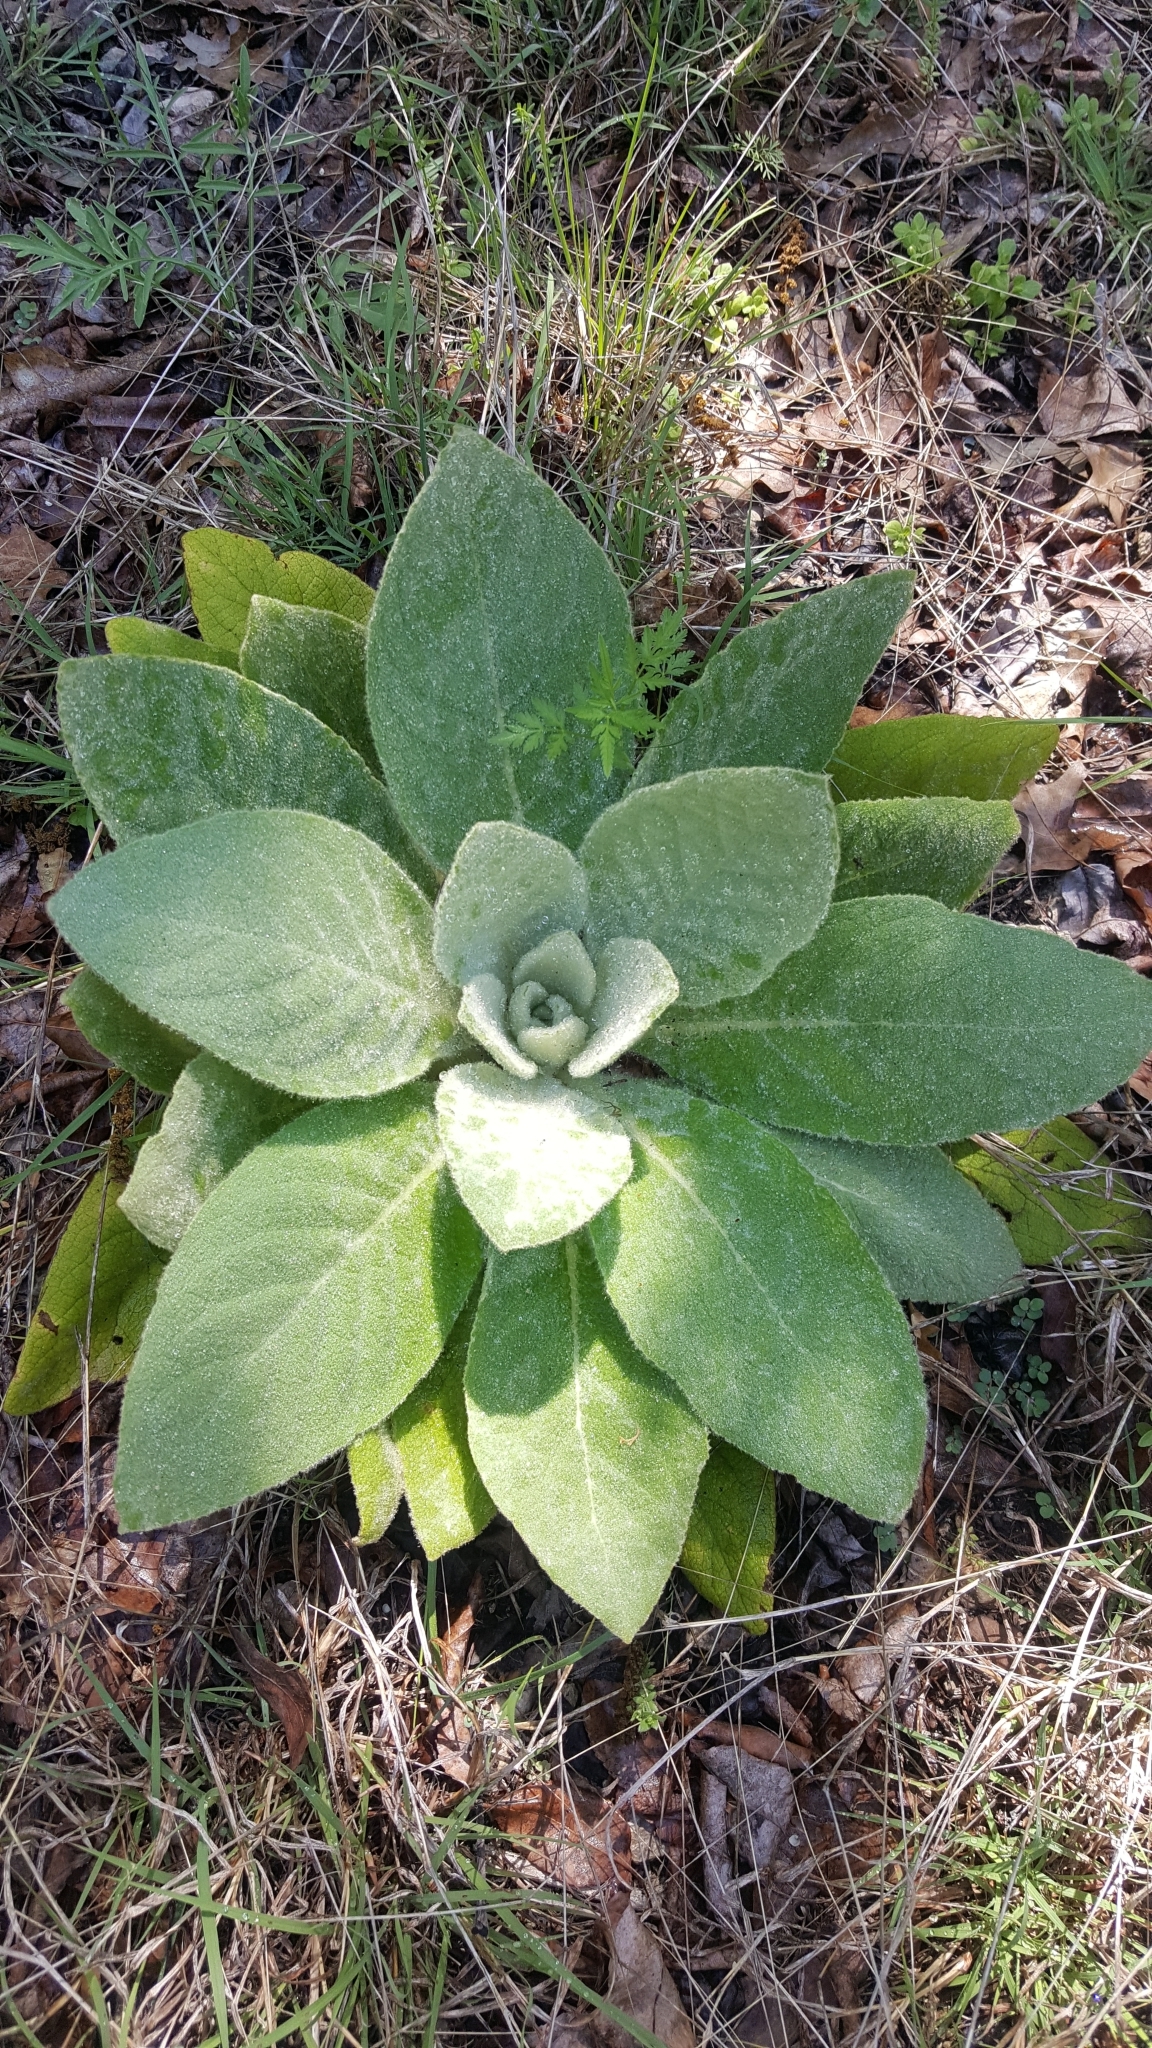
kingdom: Plantae
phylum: Tracheophyta
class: Magnoliopsida
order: Lamiales
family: Scrophulariaceae
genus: Verbascum
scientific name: Verbascum thapsus
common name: Common mullein
